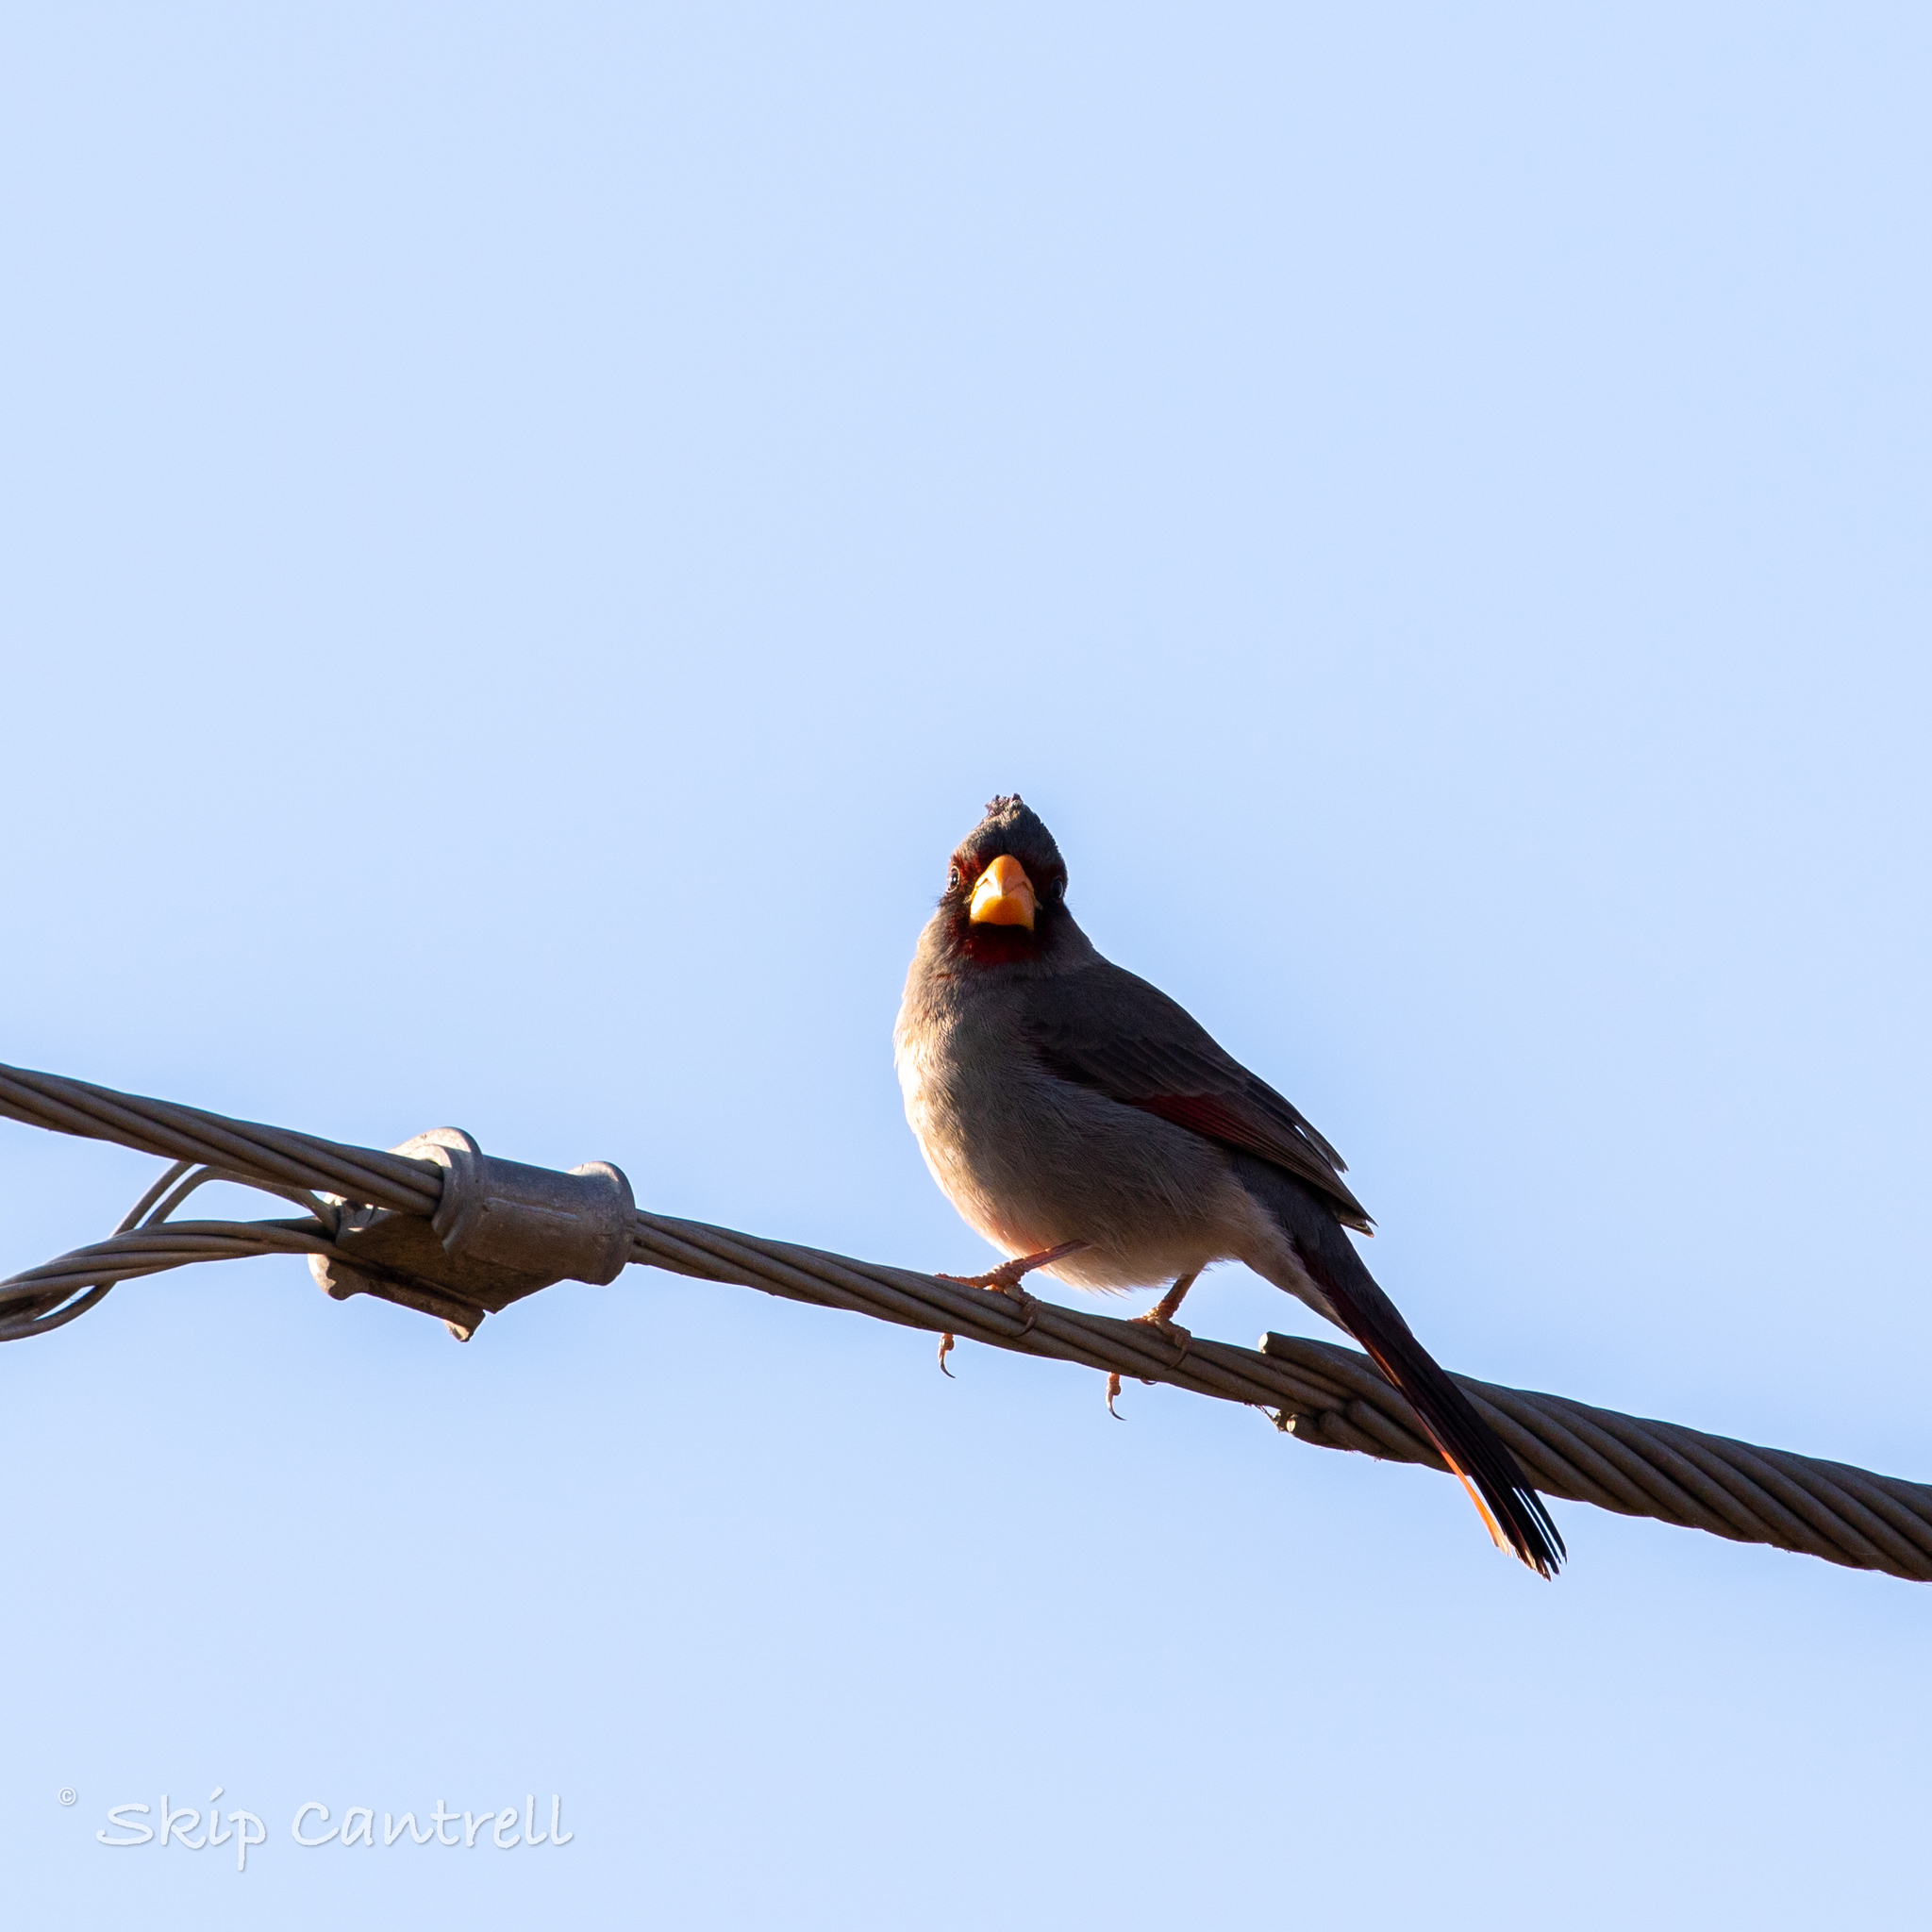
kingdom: Animalia
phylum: Chordata
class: Aves
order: Passeriformes
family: Cardinalidae
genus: Cardinalis
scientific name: Cardinalis sinuatus
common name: Pyrrhuloxia
